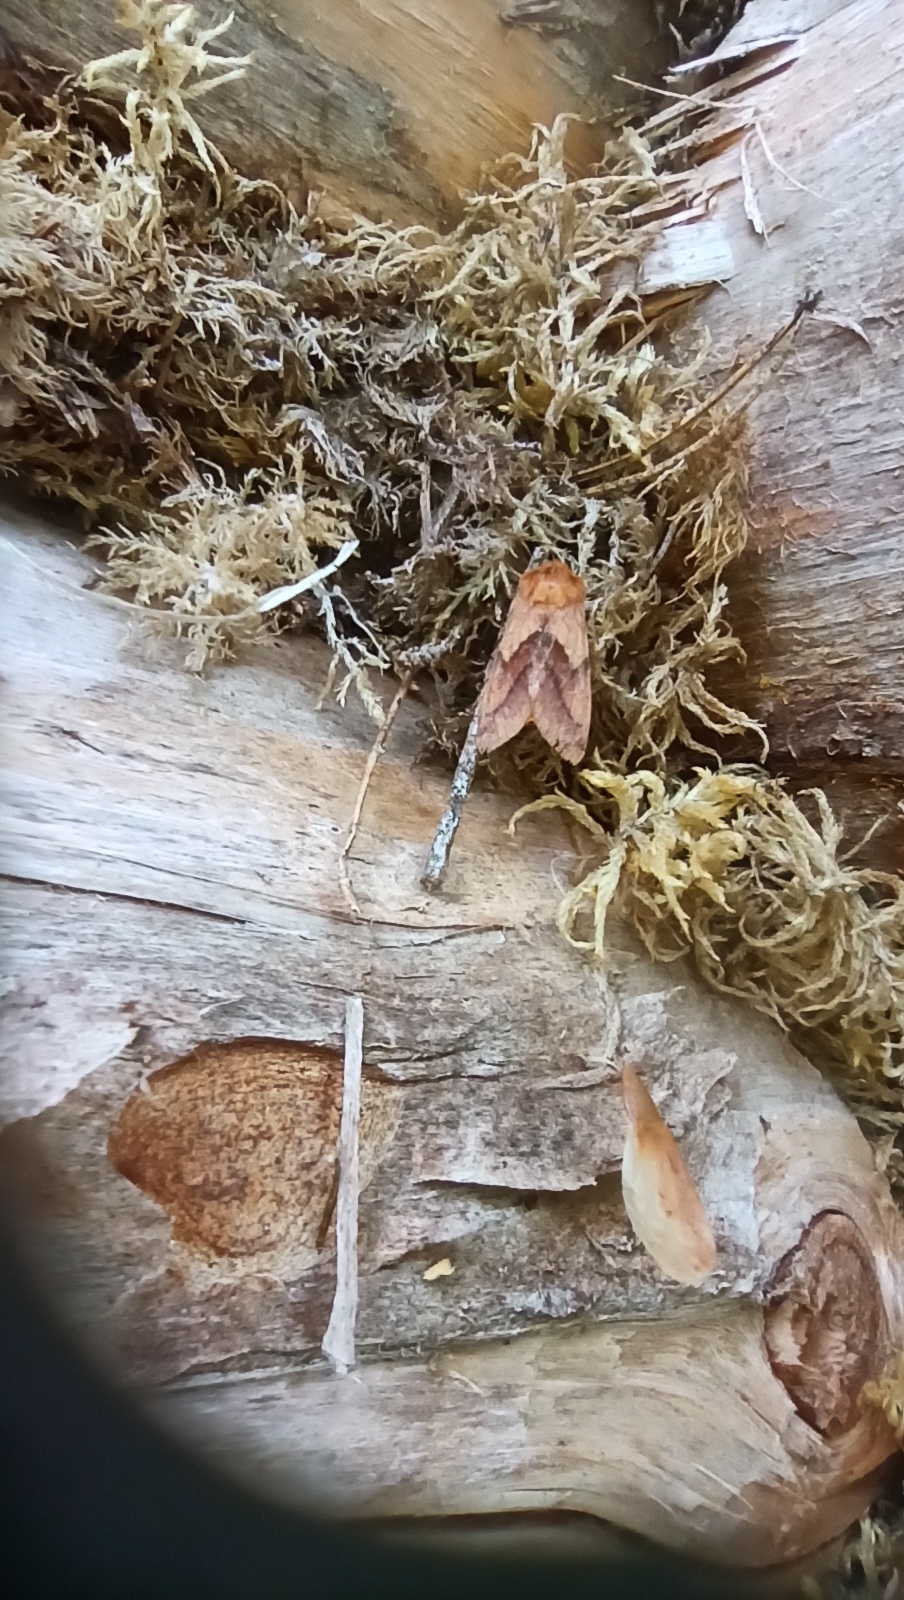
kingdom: Animalia
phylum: Arthropoda
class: Insecta
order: Lepidoptera
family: Noctuidae
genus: Pyrrhia
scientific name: Pyrrhia exprimens
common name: Purple-lined sallow
